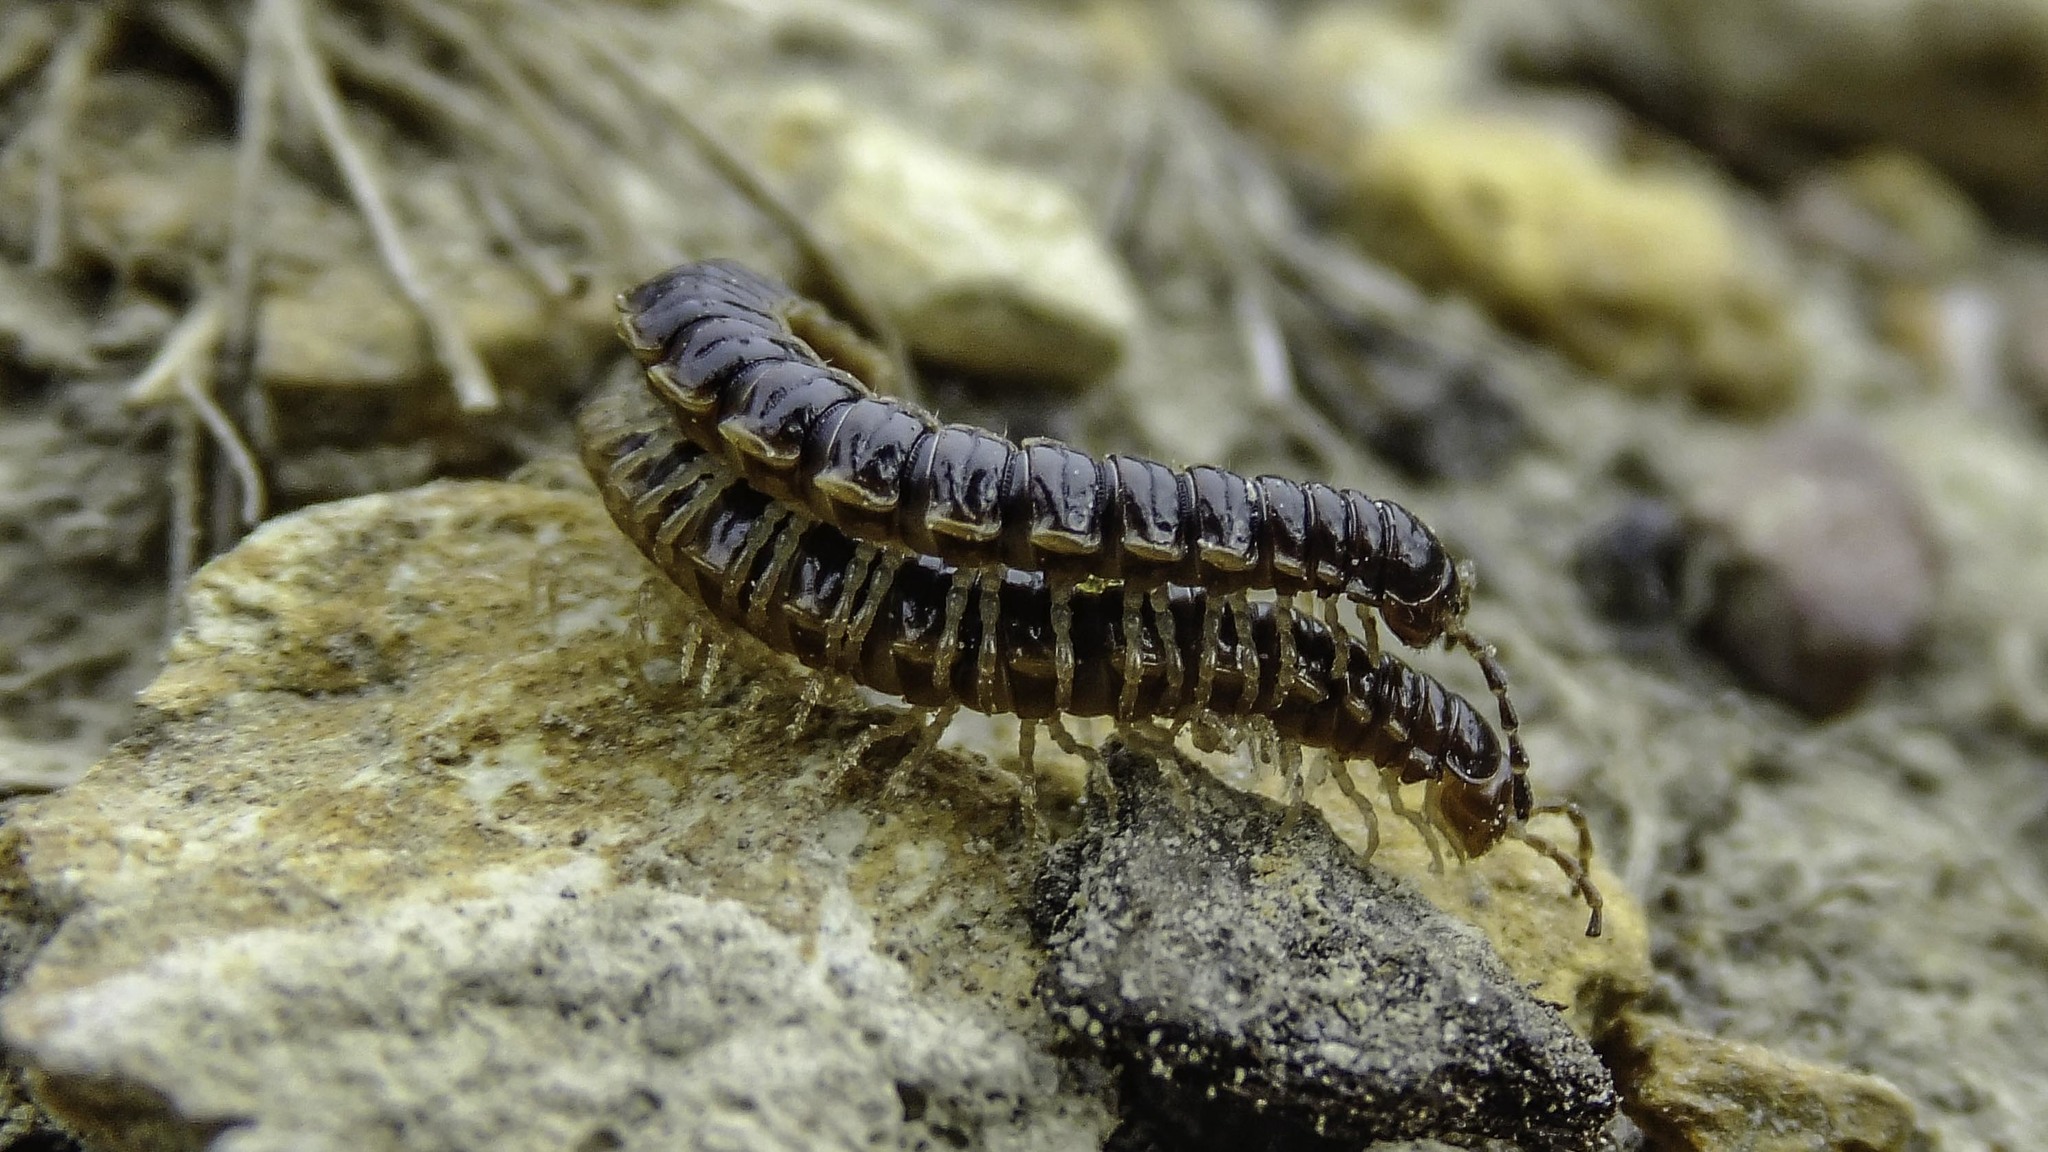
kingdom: Animalia
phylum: Arthropoda
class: Diplopoda
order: Polydesmida
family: Paradoxosomatidae
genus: Oxidus
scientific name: Oxidus gracilis
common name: Greenhouse millipede
